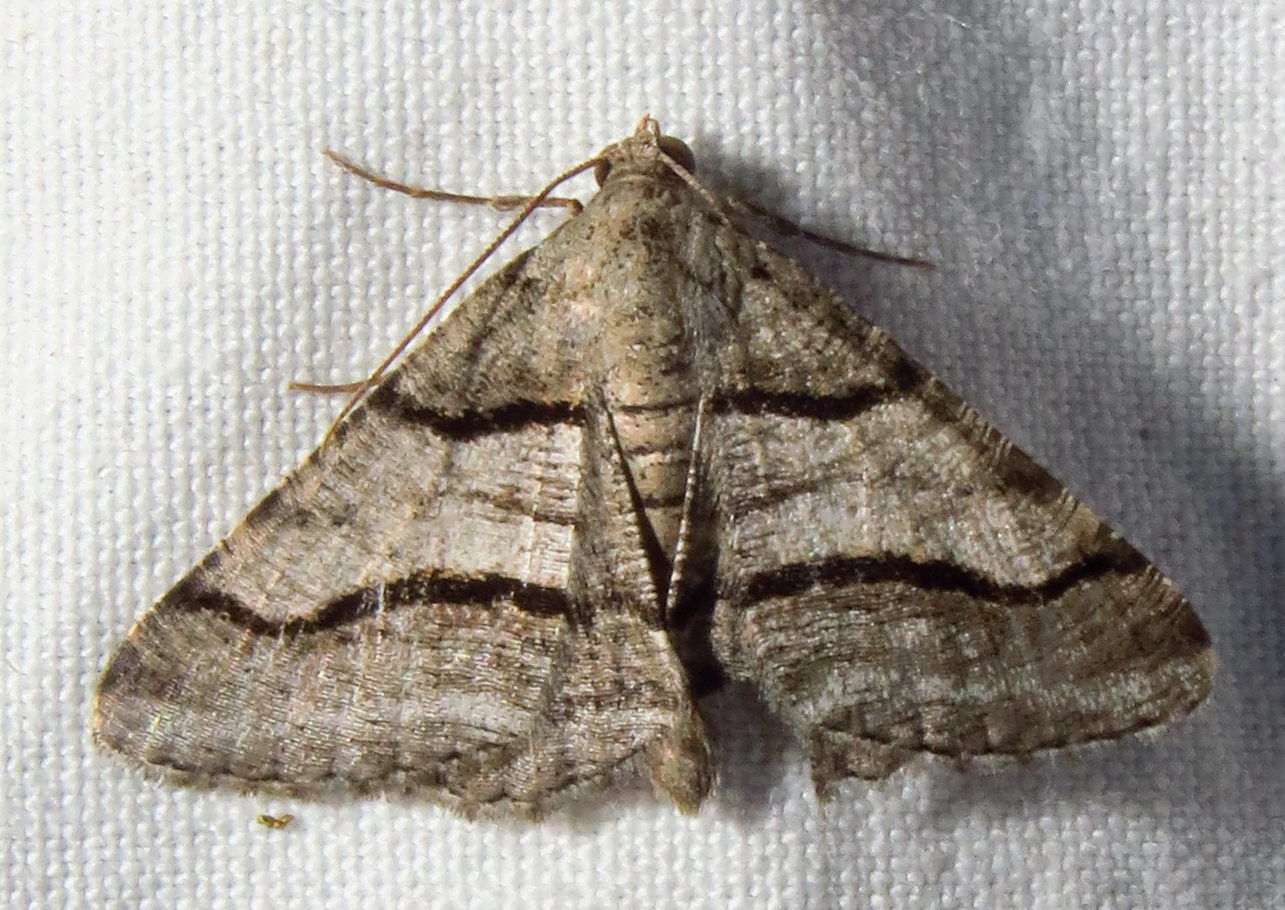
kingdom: Animalia
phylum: Arthropoda
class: Insecta
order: Lepidoptera
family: Geometridae
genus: Digrammia
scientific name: Digrammia continuata
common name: Curve-lined angle
